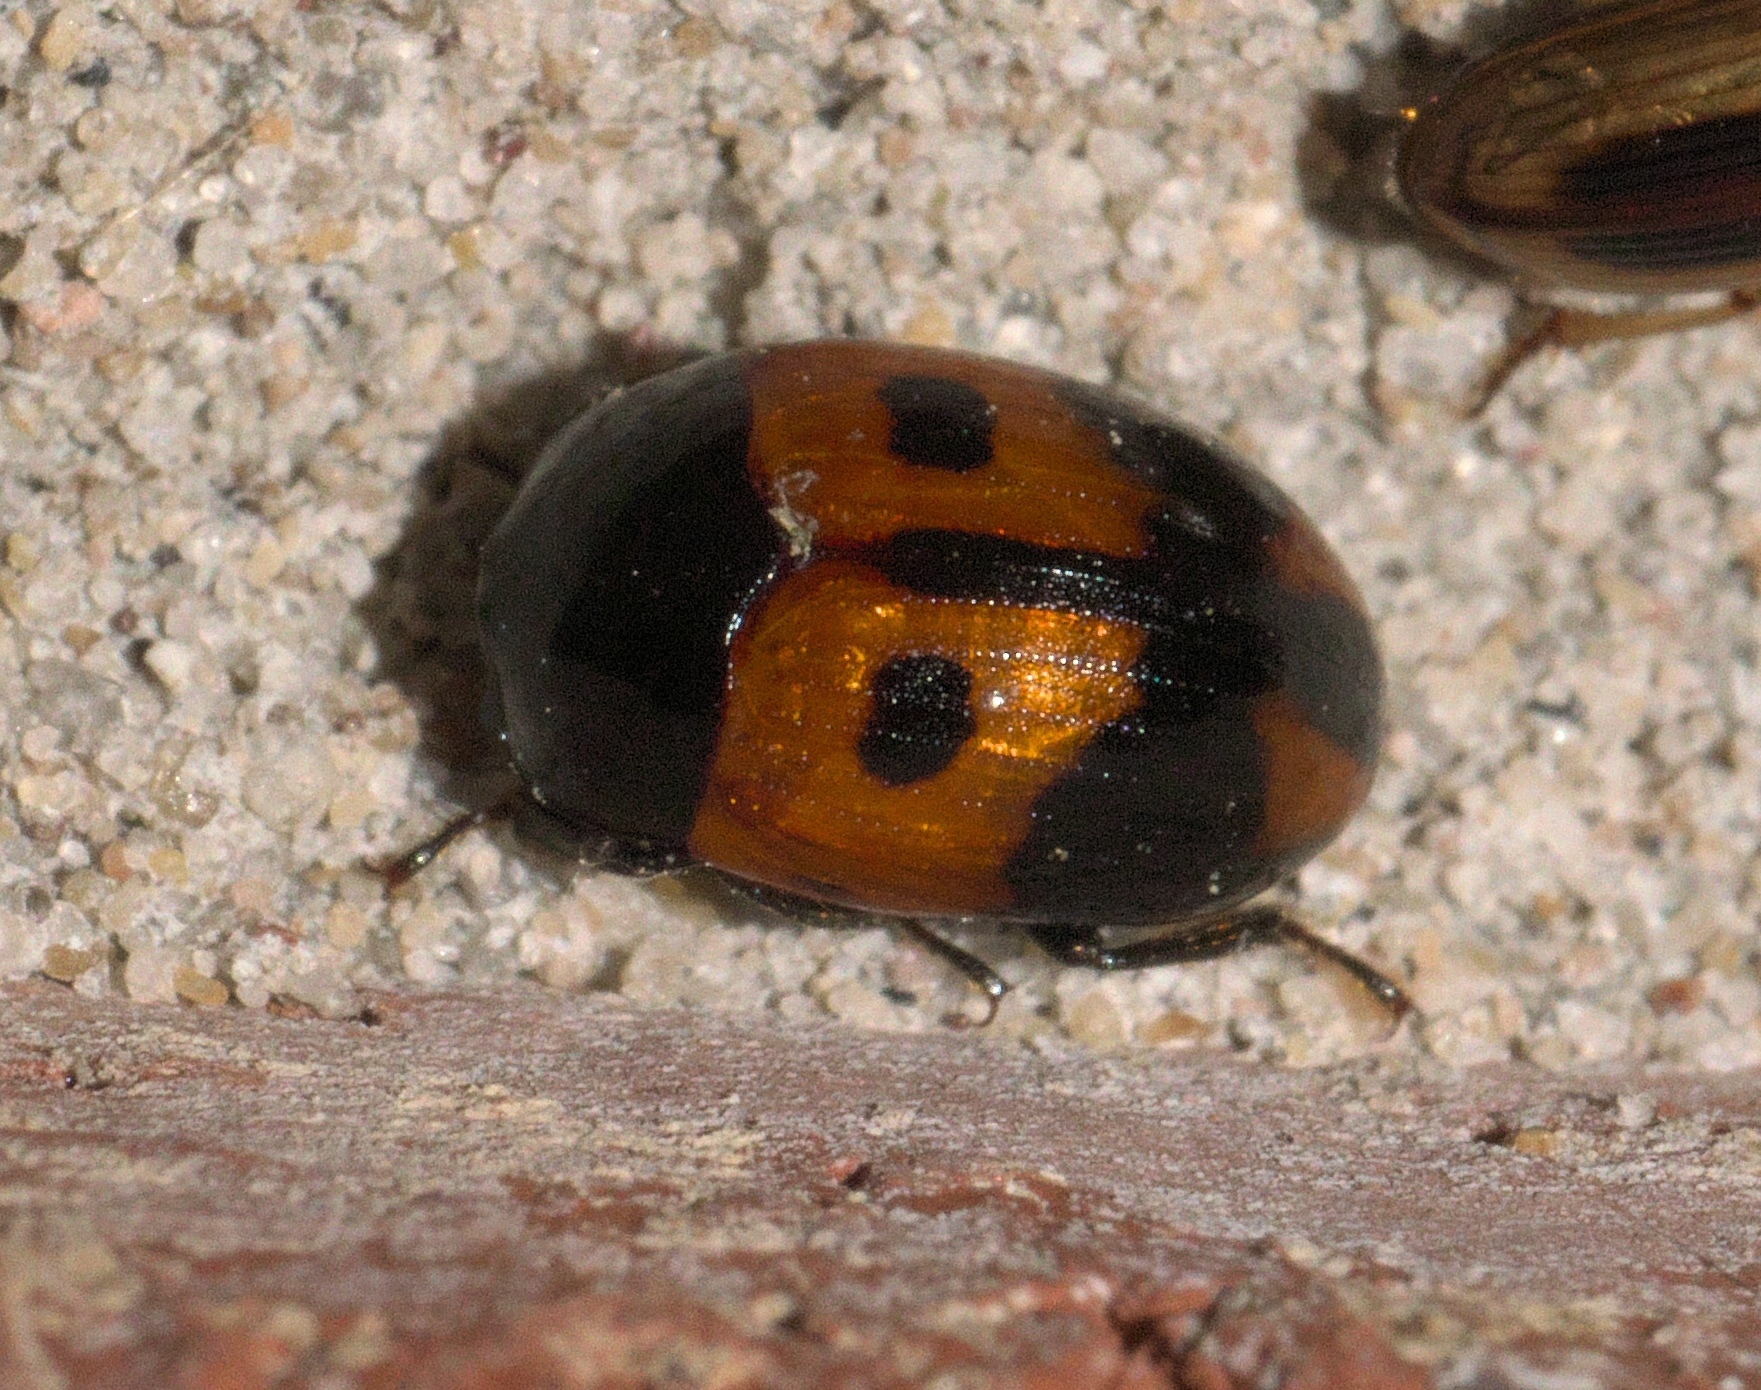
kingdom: Animalia
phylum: Arthropoda
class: Insecta
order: Coleoptera
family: Tenebrionidae
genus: Diaperis
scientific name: Diaperis maculata
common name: Darkling beetle
